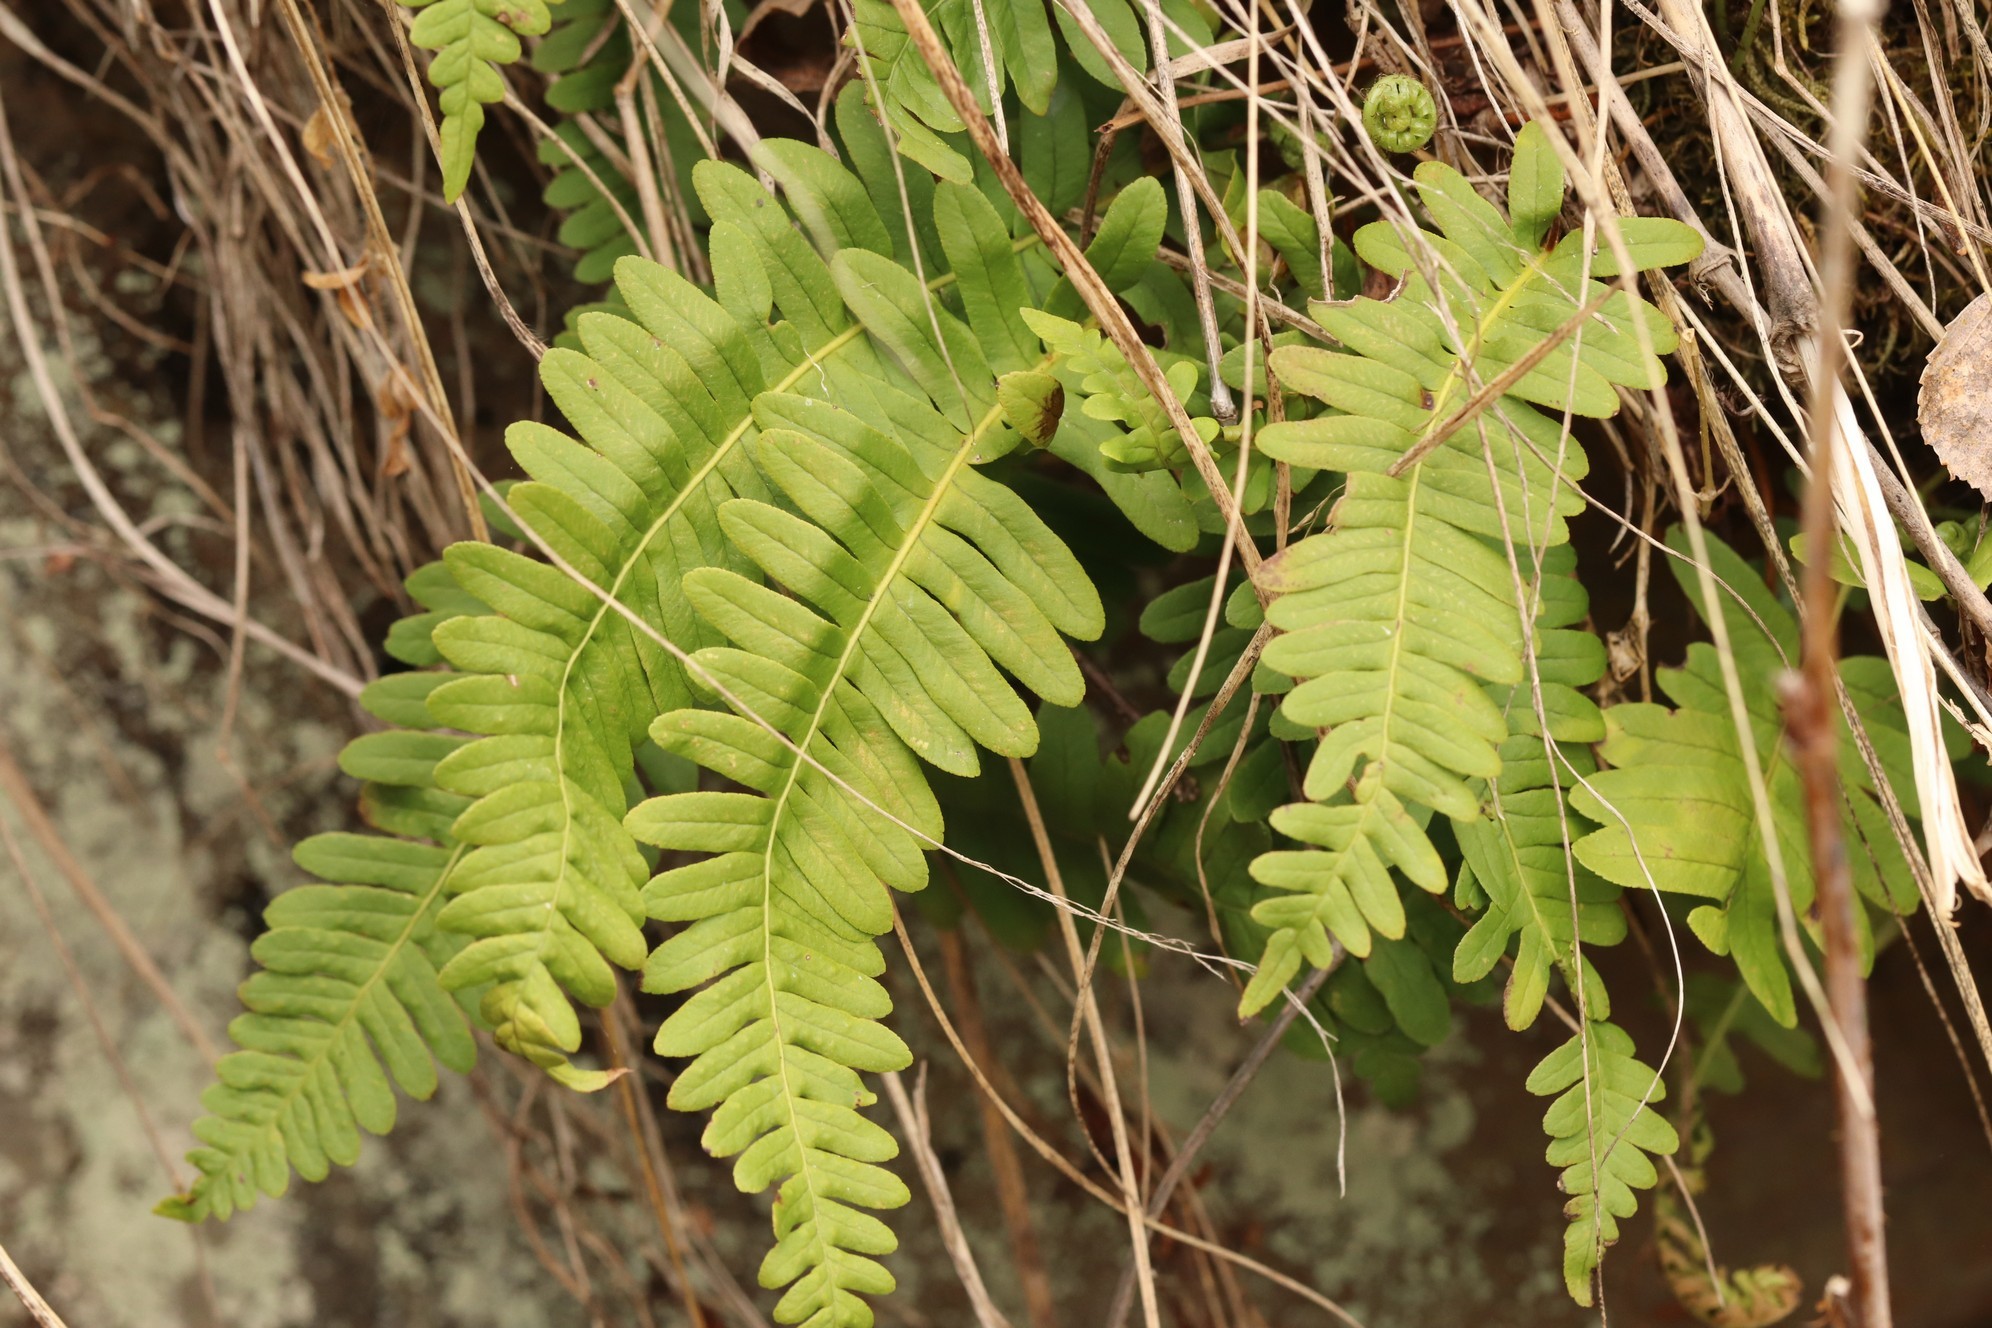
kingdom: Plantae
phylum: Tracheophyta
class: Polypodiopsida
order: Polypodiales
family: Polypodiaceae
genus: Polypodium
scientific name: Polypodium vulgare
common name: Common polypody
